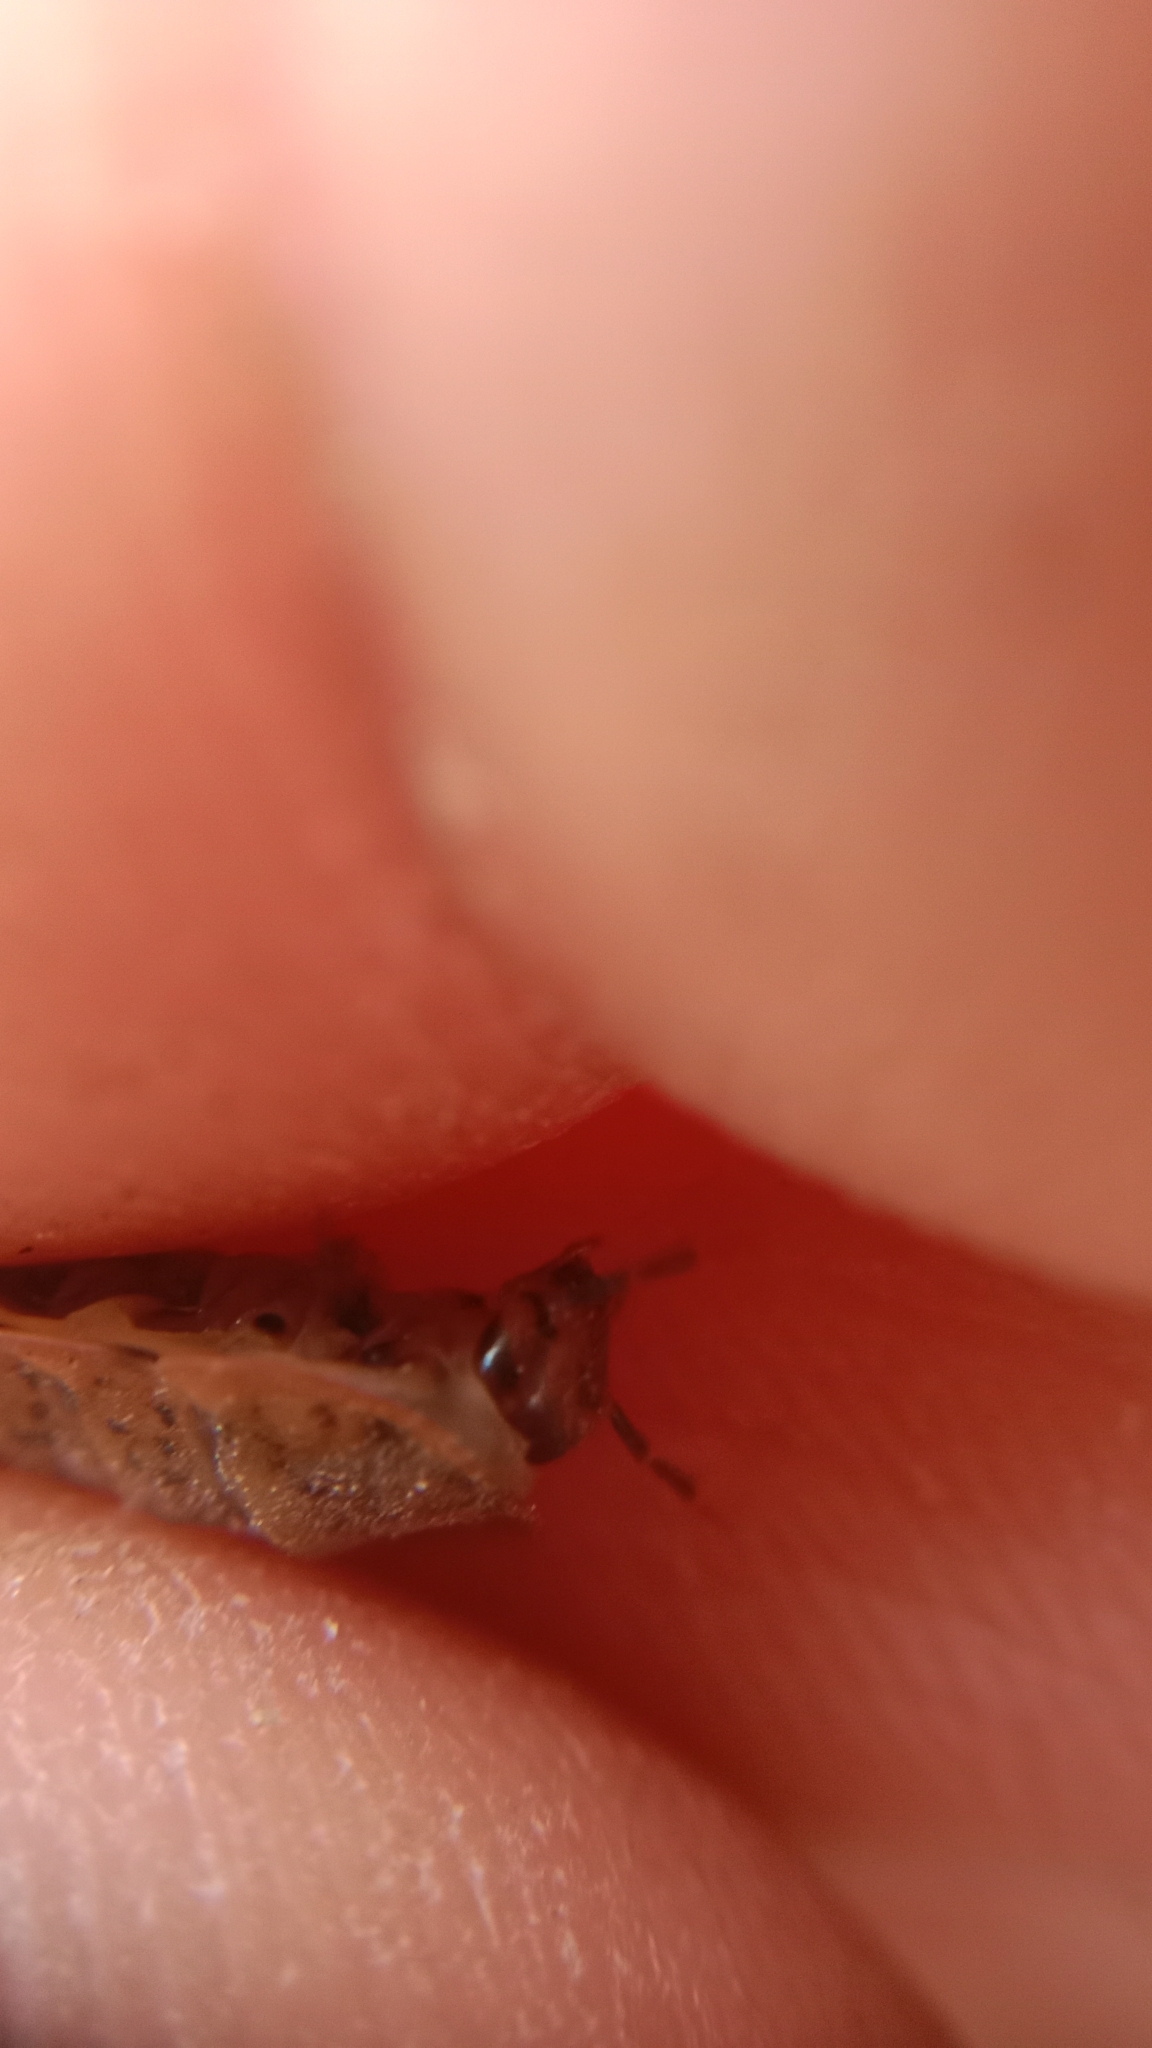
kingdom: Animalia
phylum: Arthropoda
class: Insecta
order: Coleoptera
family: Staphylinidae
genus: Silpha
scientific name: Silpha obscura
